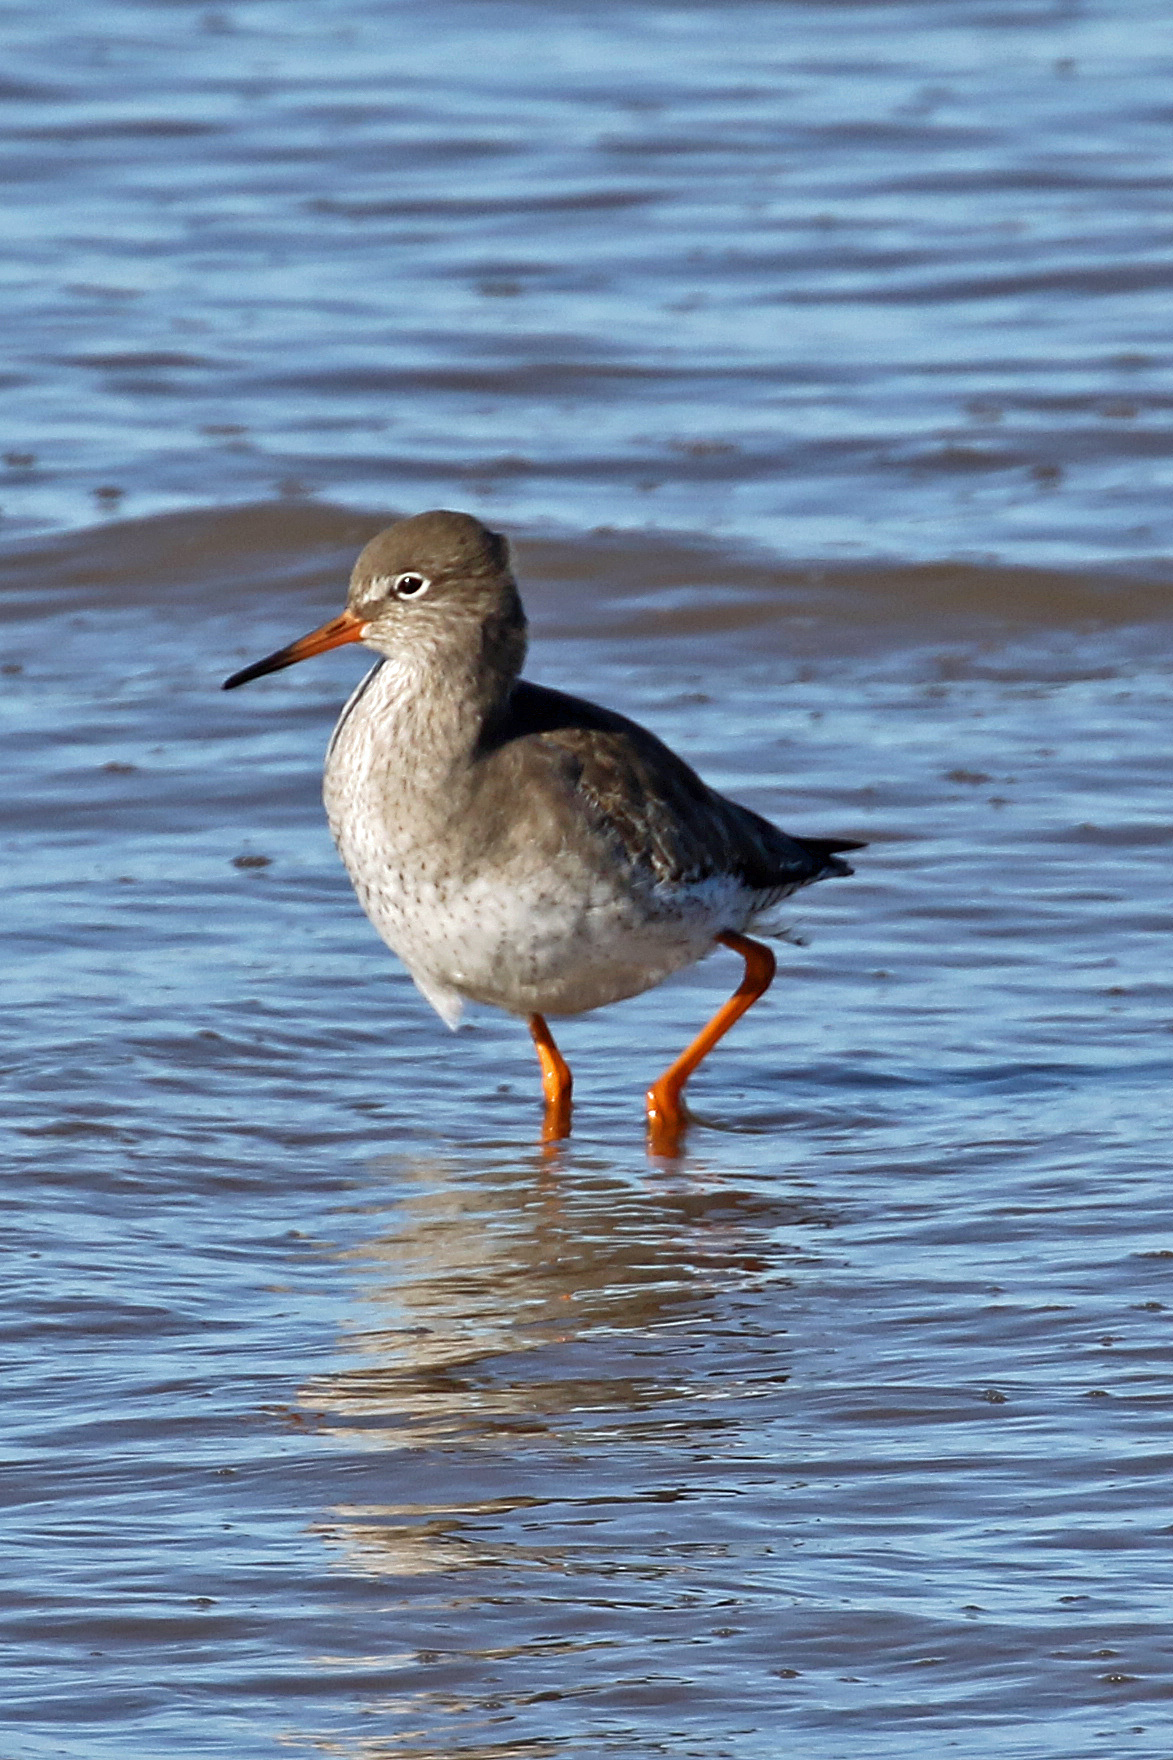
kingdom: Animalia
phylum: Chordata
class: Aves
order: Charadriiformes
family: Scolopacidae
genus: Tringa
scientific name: Tringa totanus
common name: Common redshank
